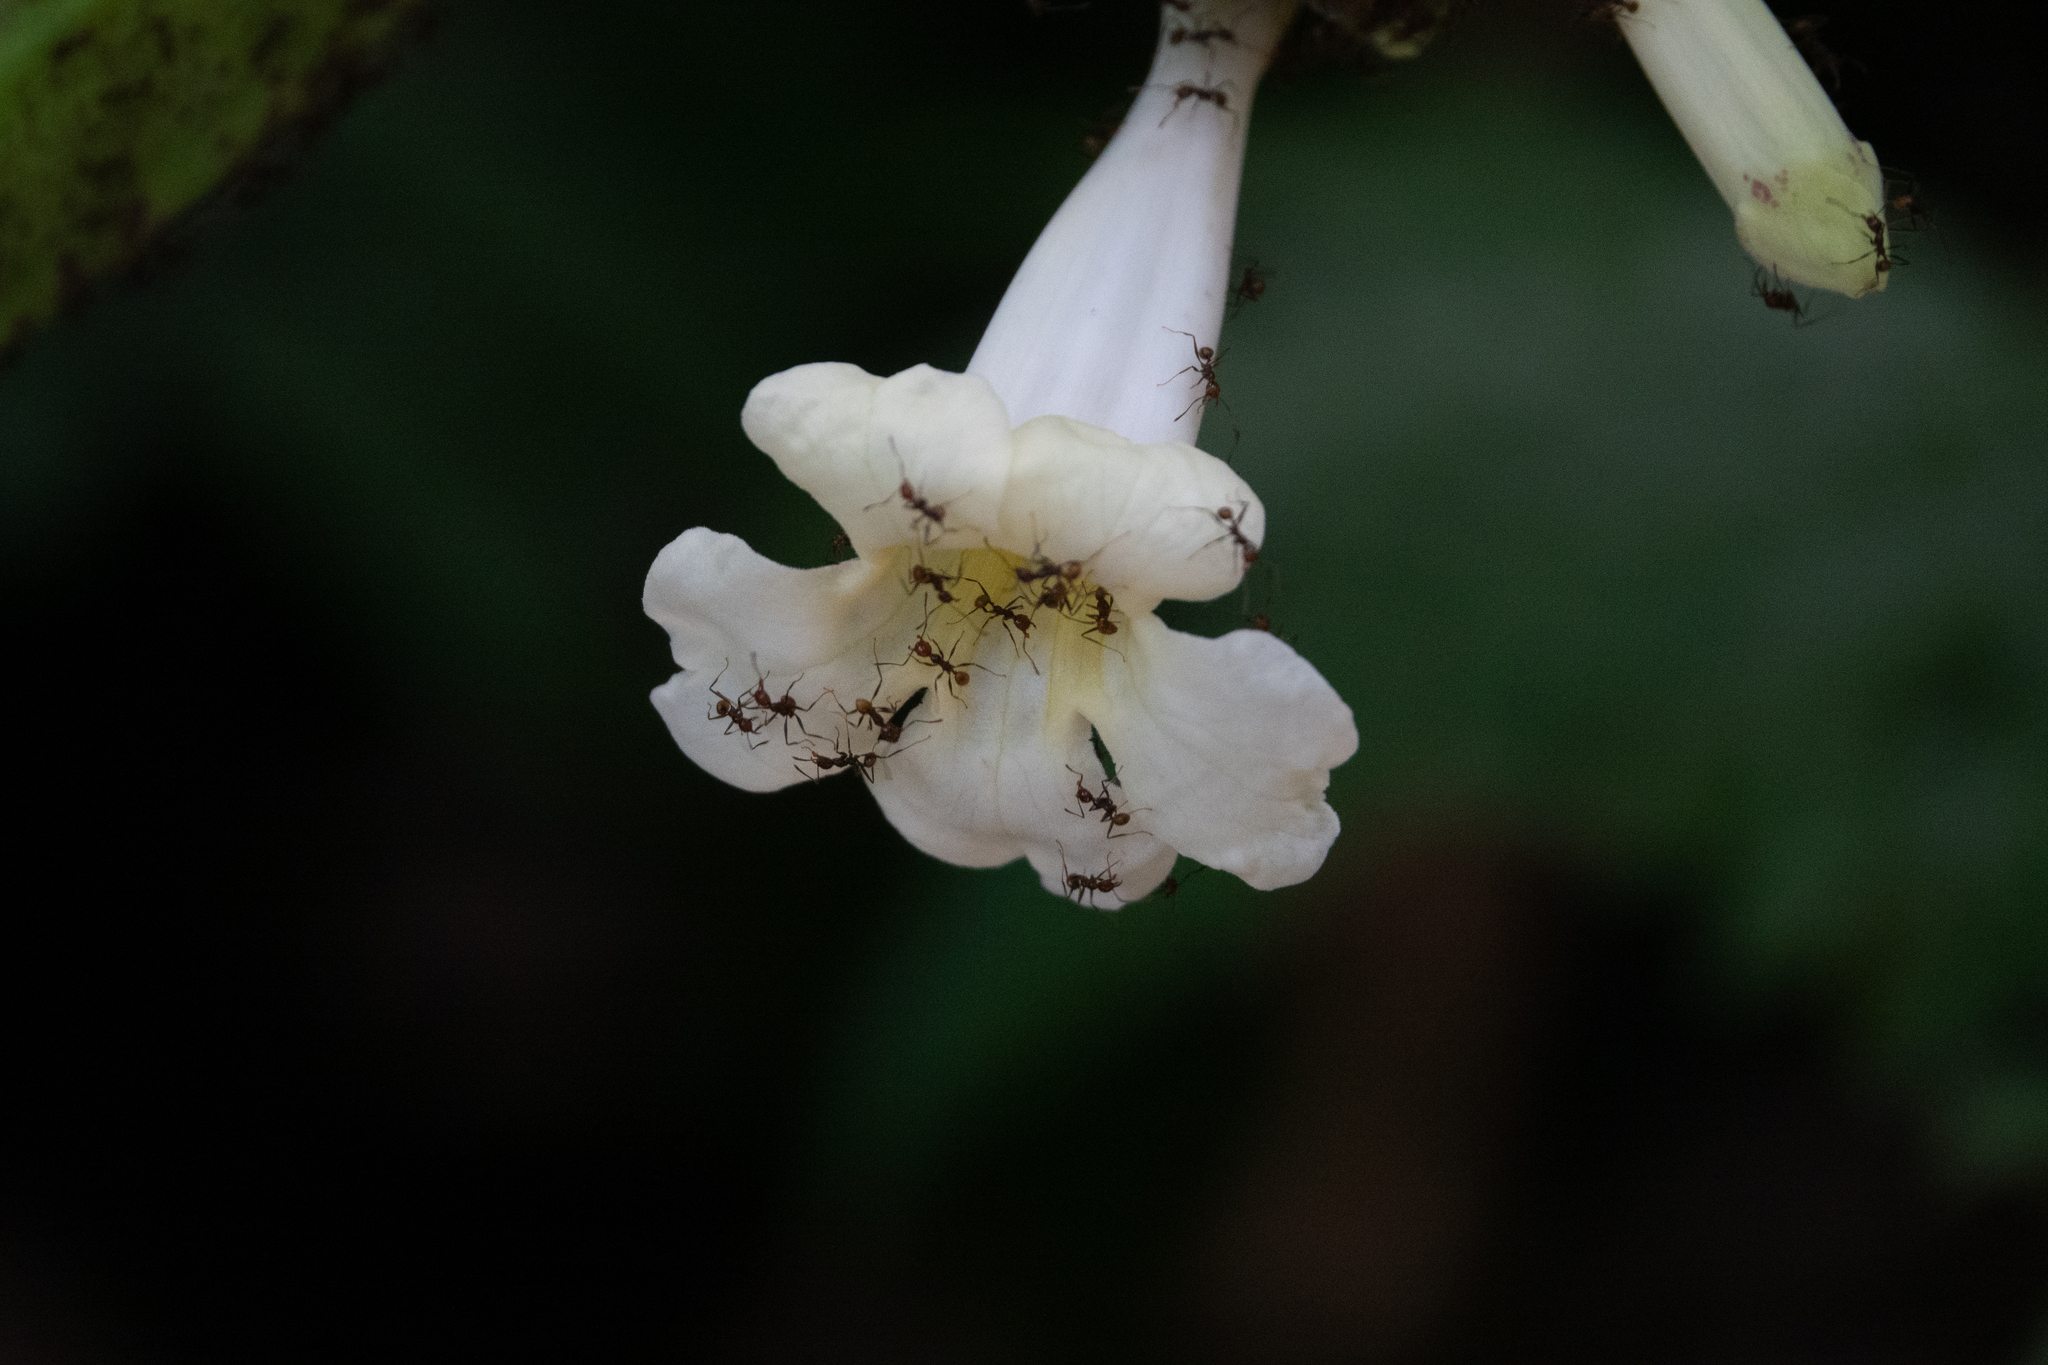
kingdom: Animalia
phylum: Arthropoda
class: Insecta
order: Hymenoptera
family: Formicidae
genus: Pheidole
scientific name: Pheidole xanthogaster
